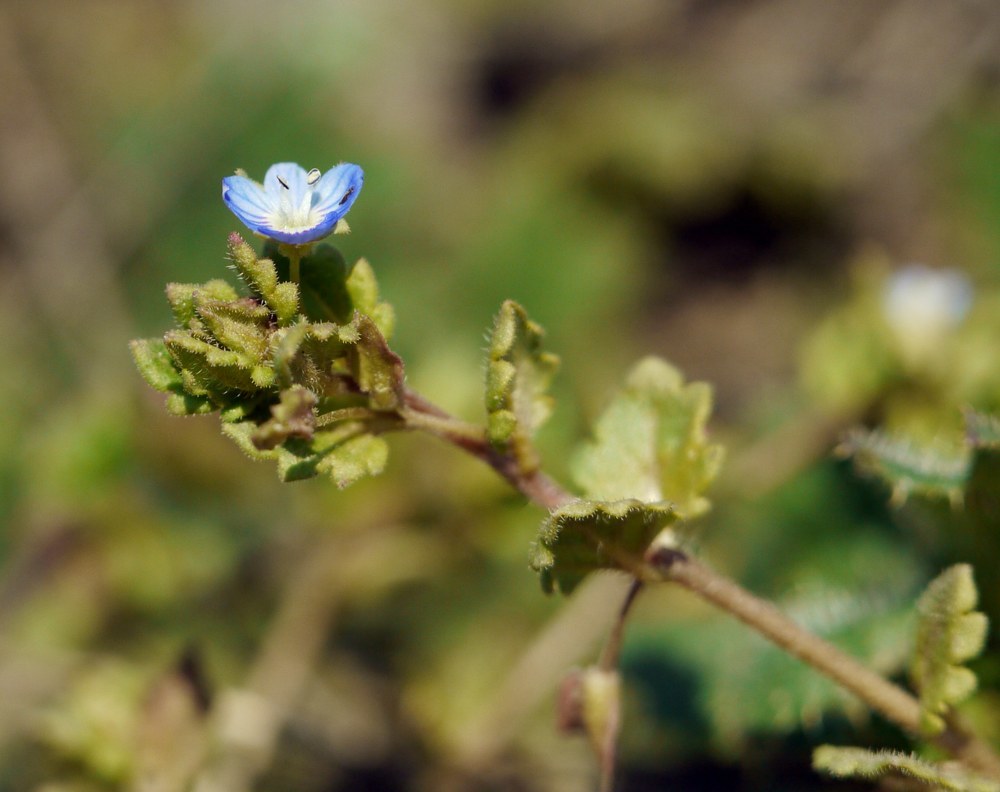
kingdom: Plantae
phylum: Tracheophyta
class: Magnoliopsida
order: Lamiales
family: Plantaginaceae
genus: Veronica
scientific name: Veronica polita
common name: Grey field-speedwell
